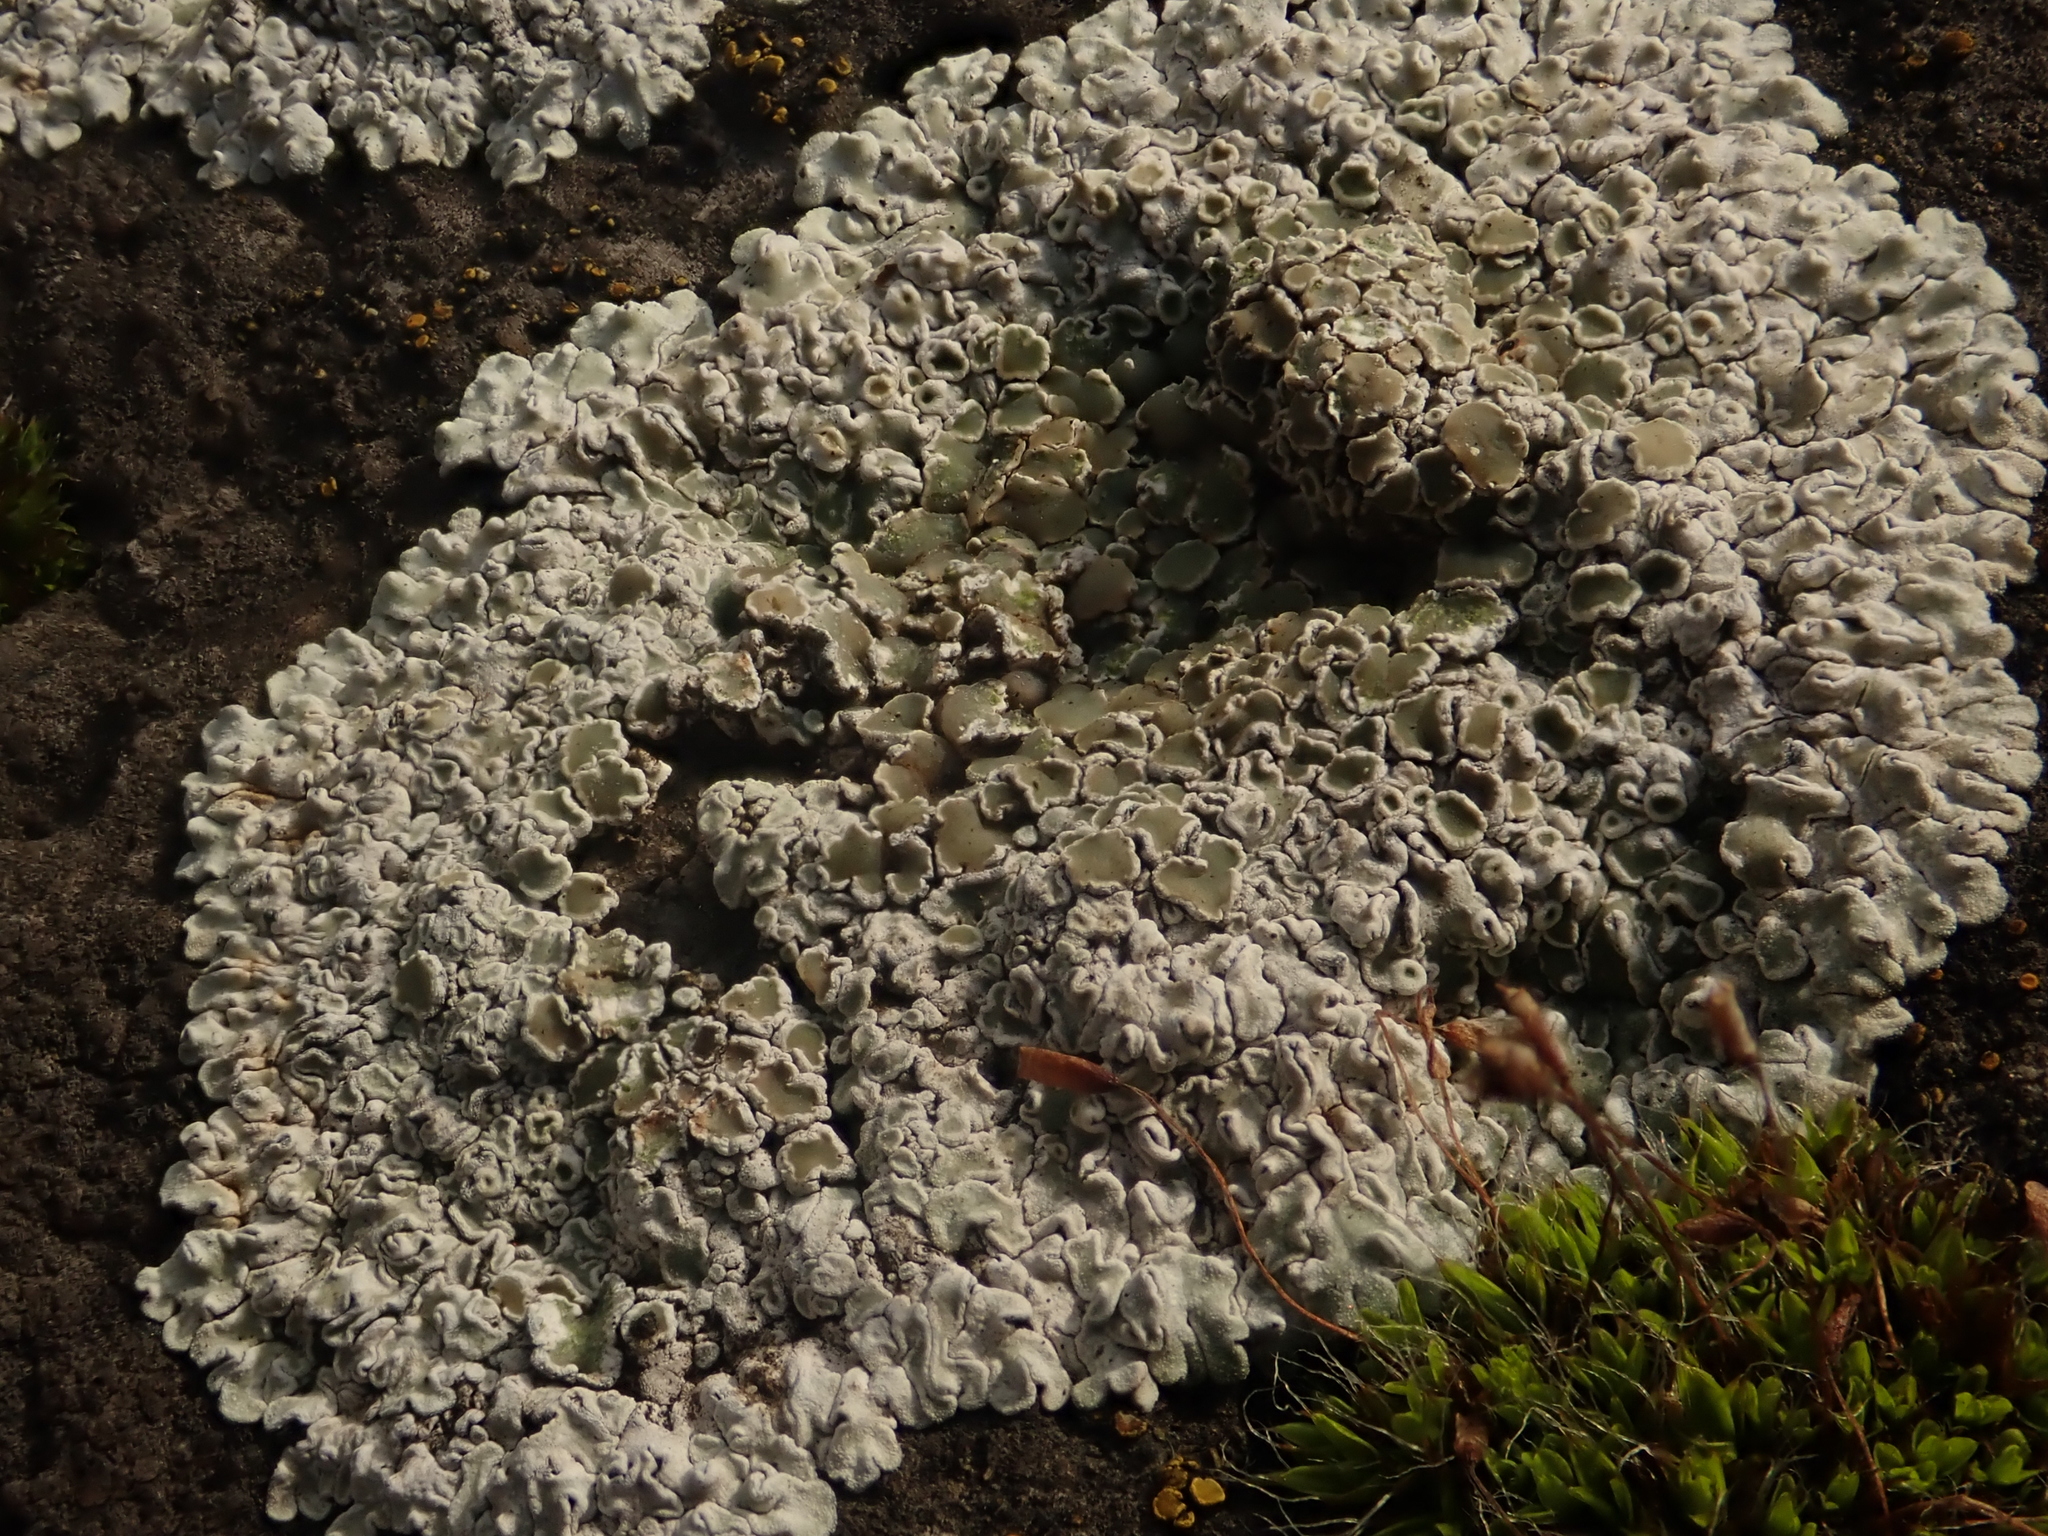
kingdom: Fungi
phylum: Ascomycota
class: Lecanoromycetes
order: Lecanorales
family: Lecanoraceae
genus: Protoparmeliopsis
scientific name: Protoparmeliopsis muralis
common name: Stonewall rim lichen
